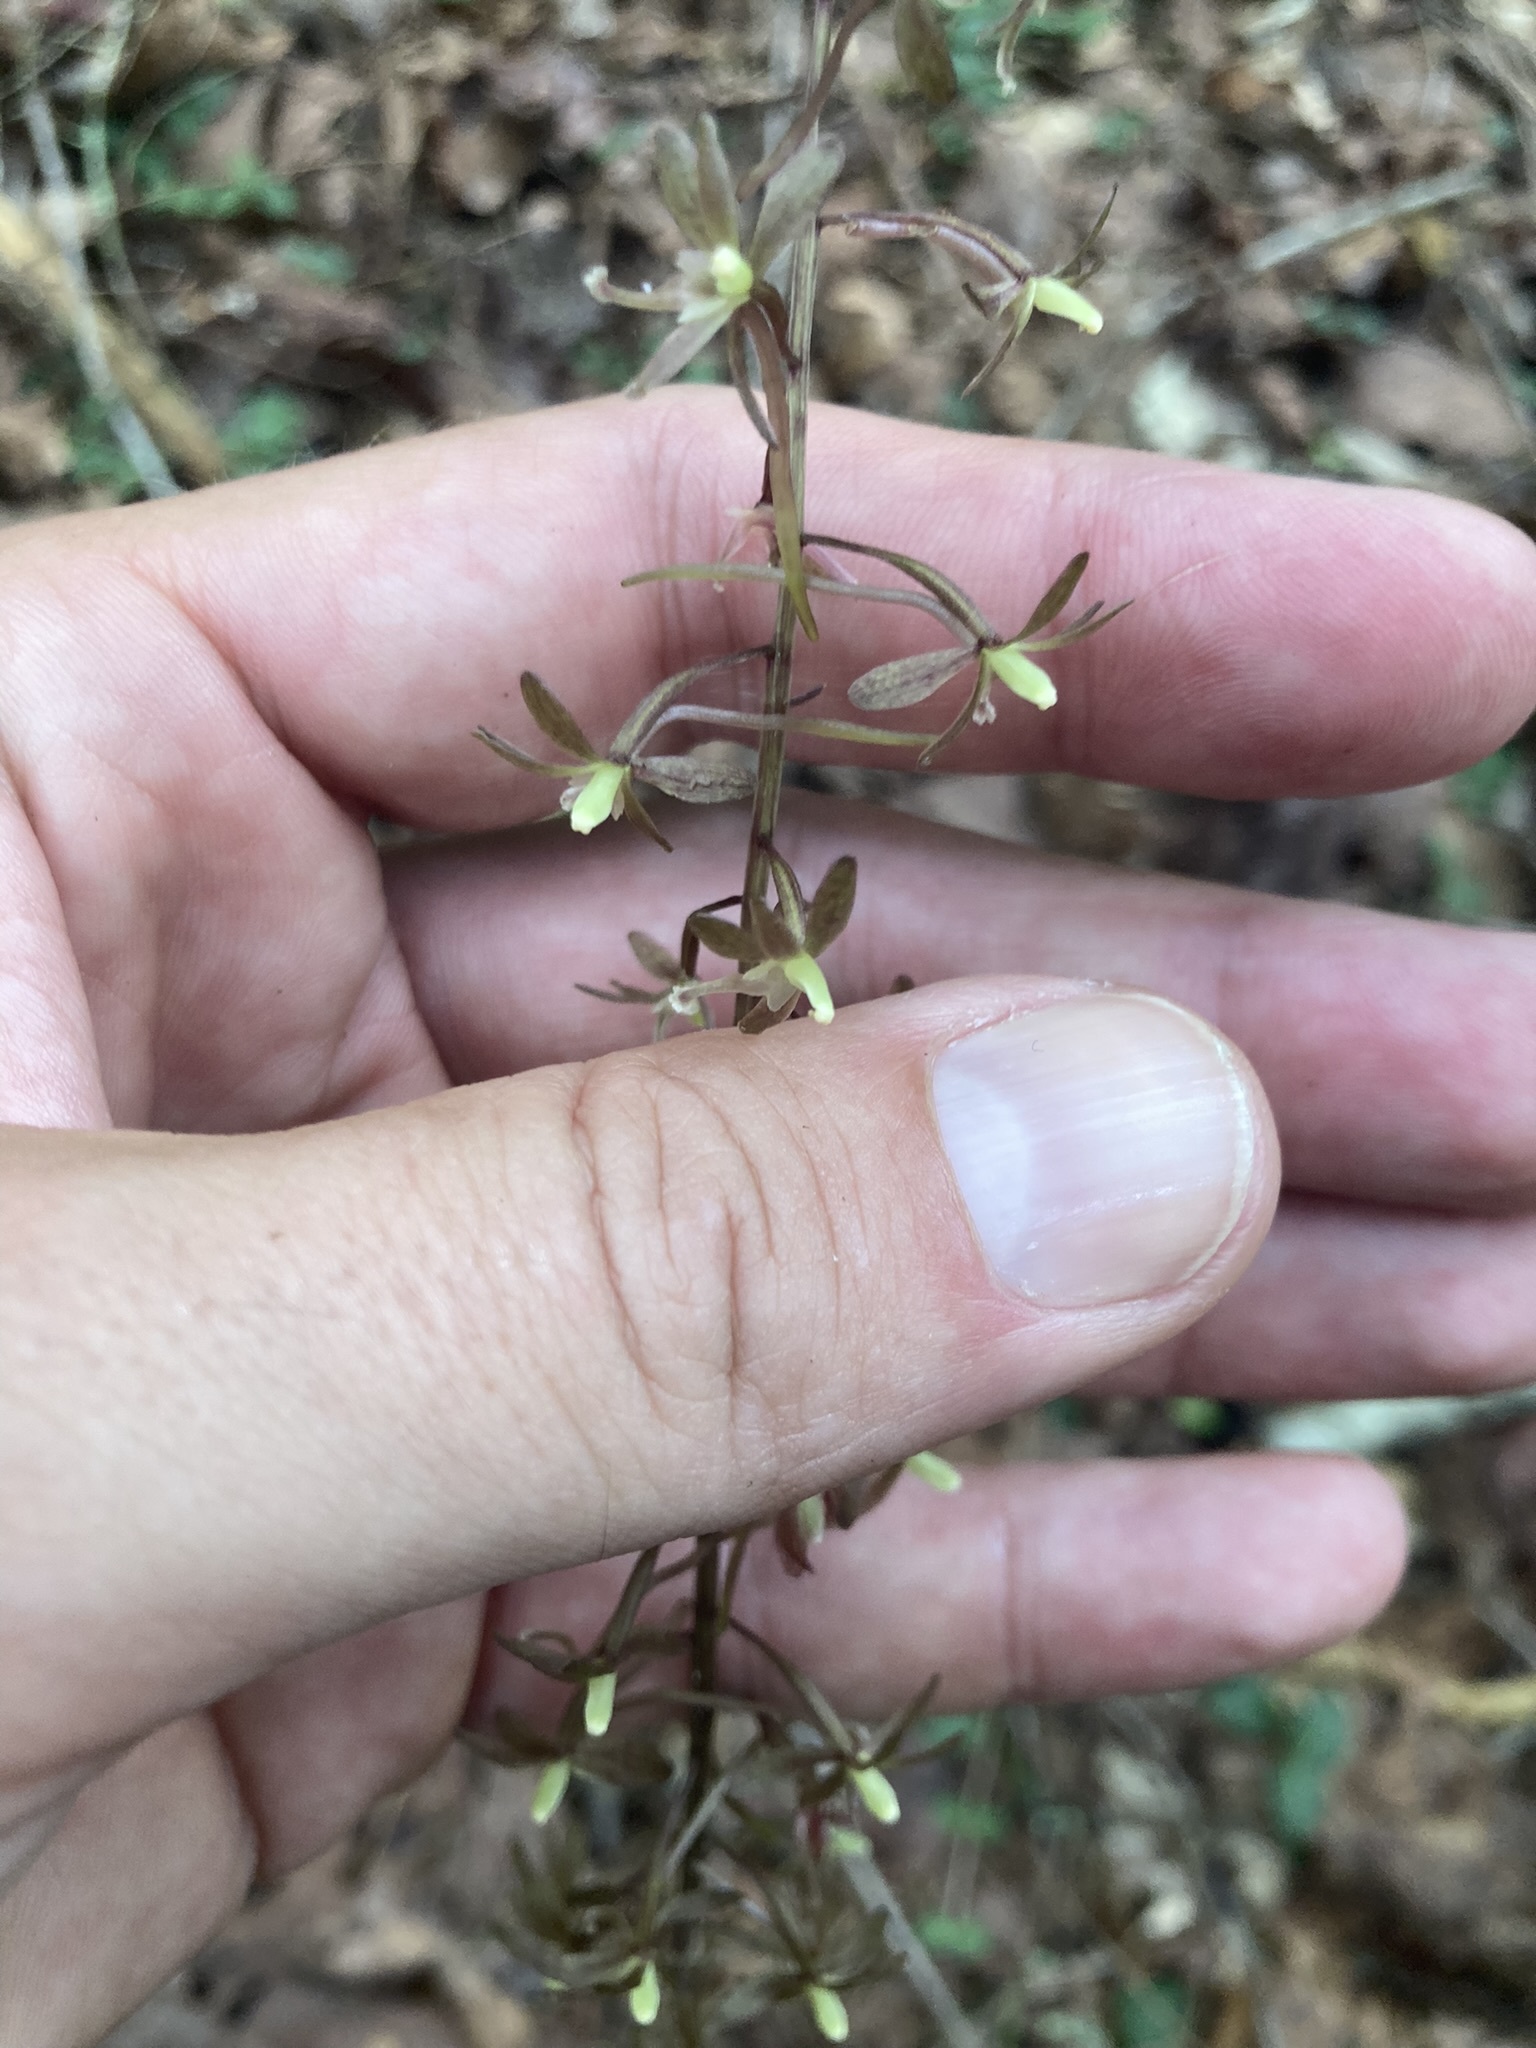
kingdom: Plantae
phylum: Tracheophyta
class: Liliopsida
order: Asparagales
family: Orchidaceae
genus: Tipularia
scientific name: Tipularia discolor
